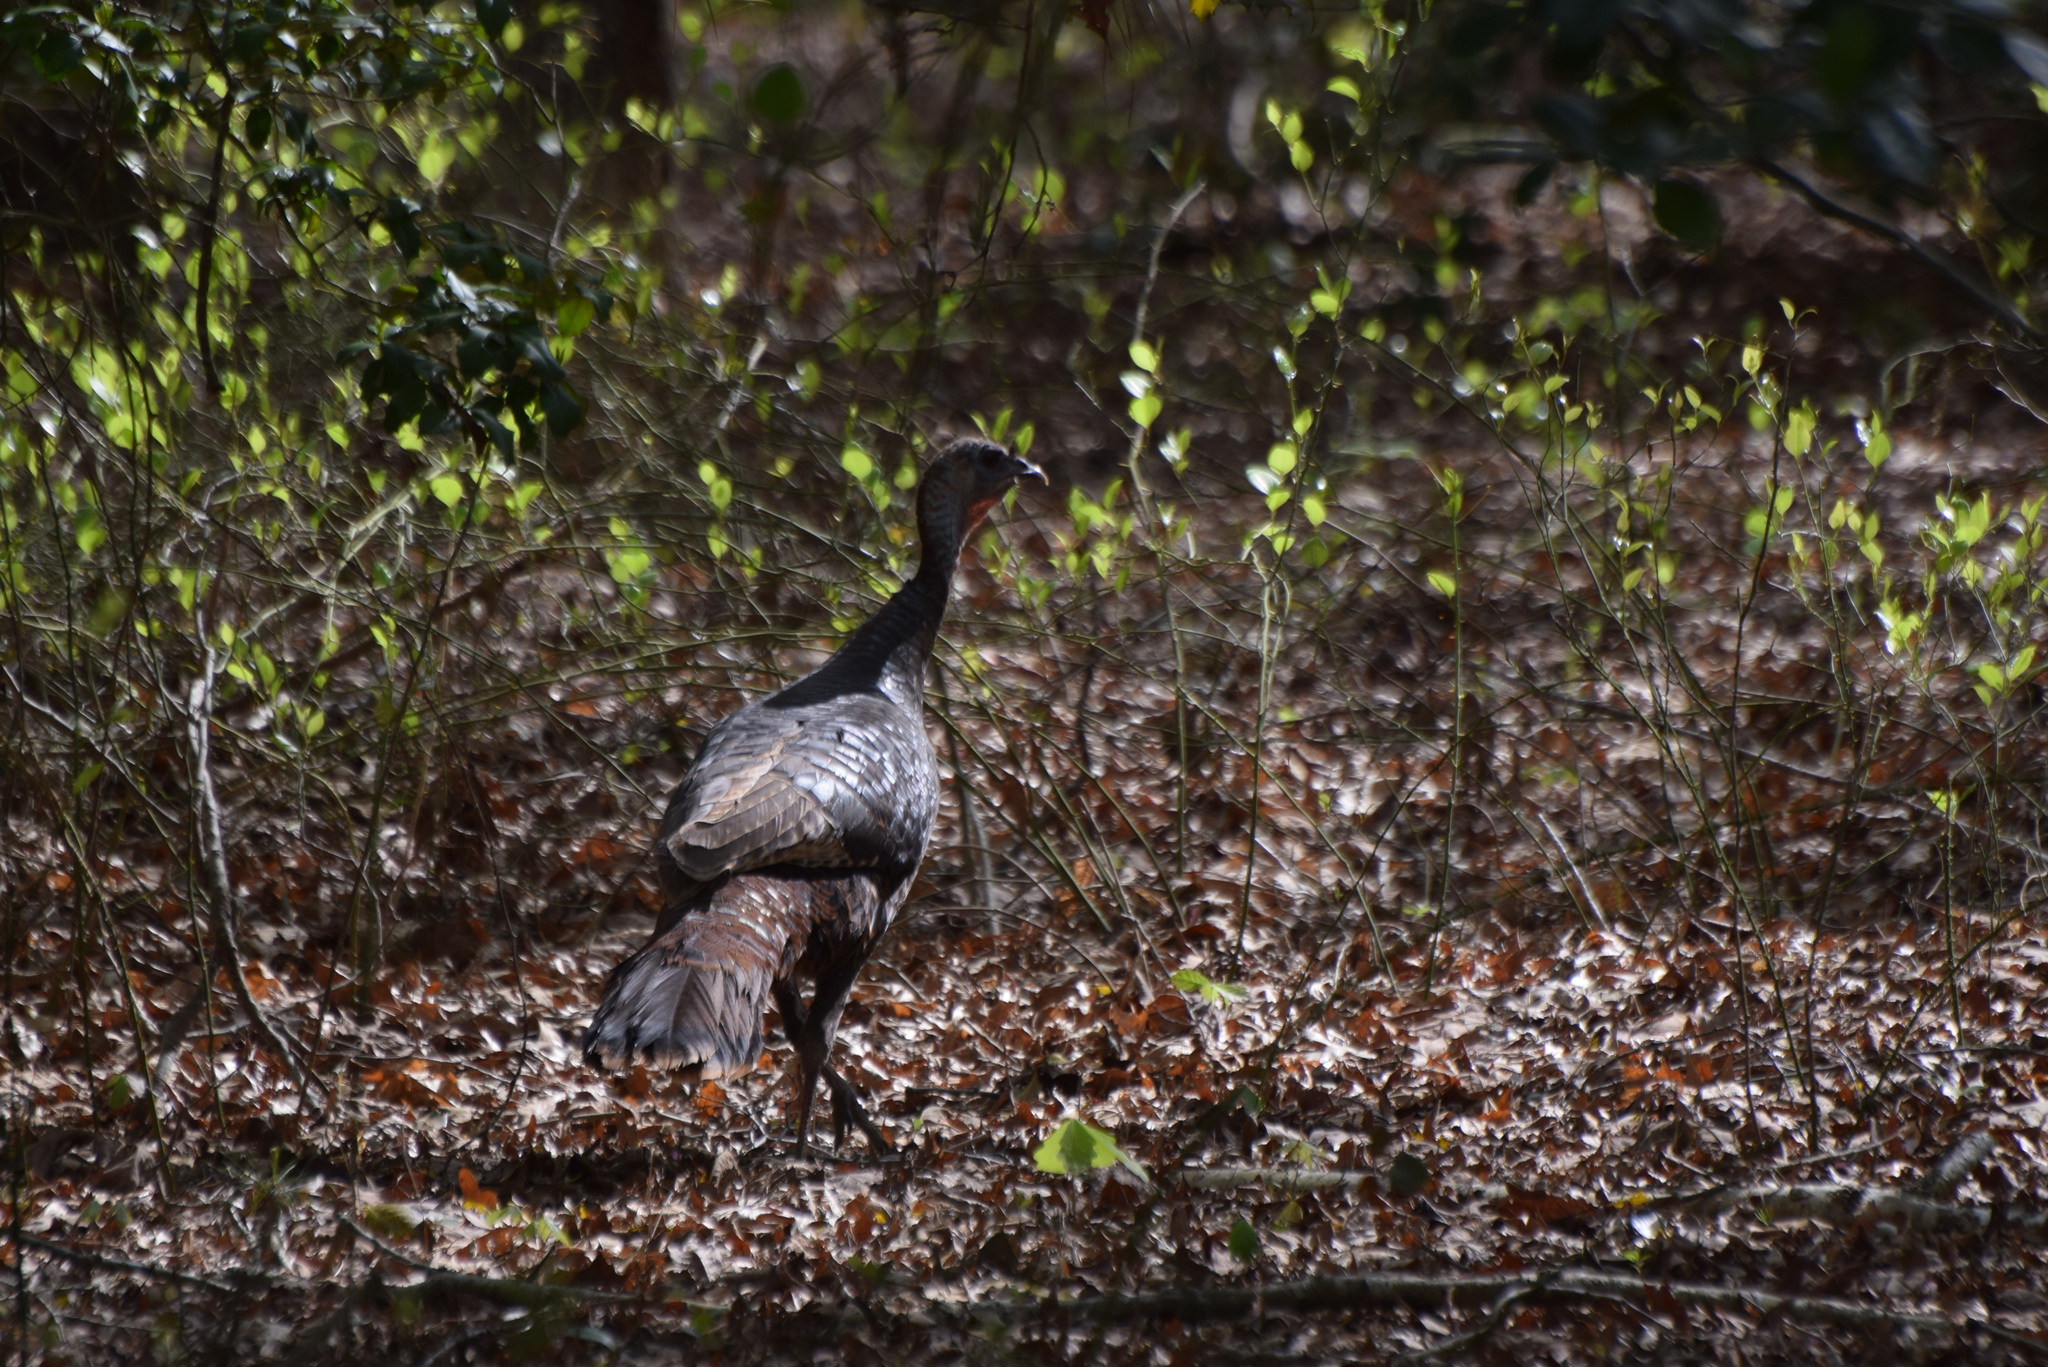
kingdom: Animalia
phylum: Chordata
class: Aves
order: Galliformes
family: Phasianidae
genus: Meleagris
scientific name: Meleagris gallopavo
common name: Wild turkey
